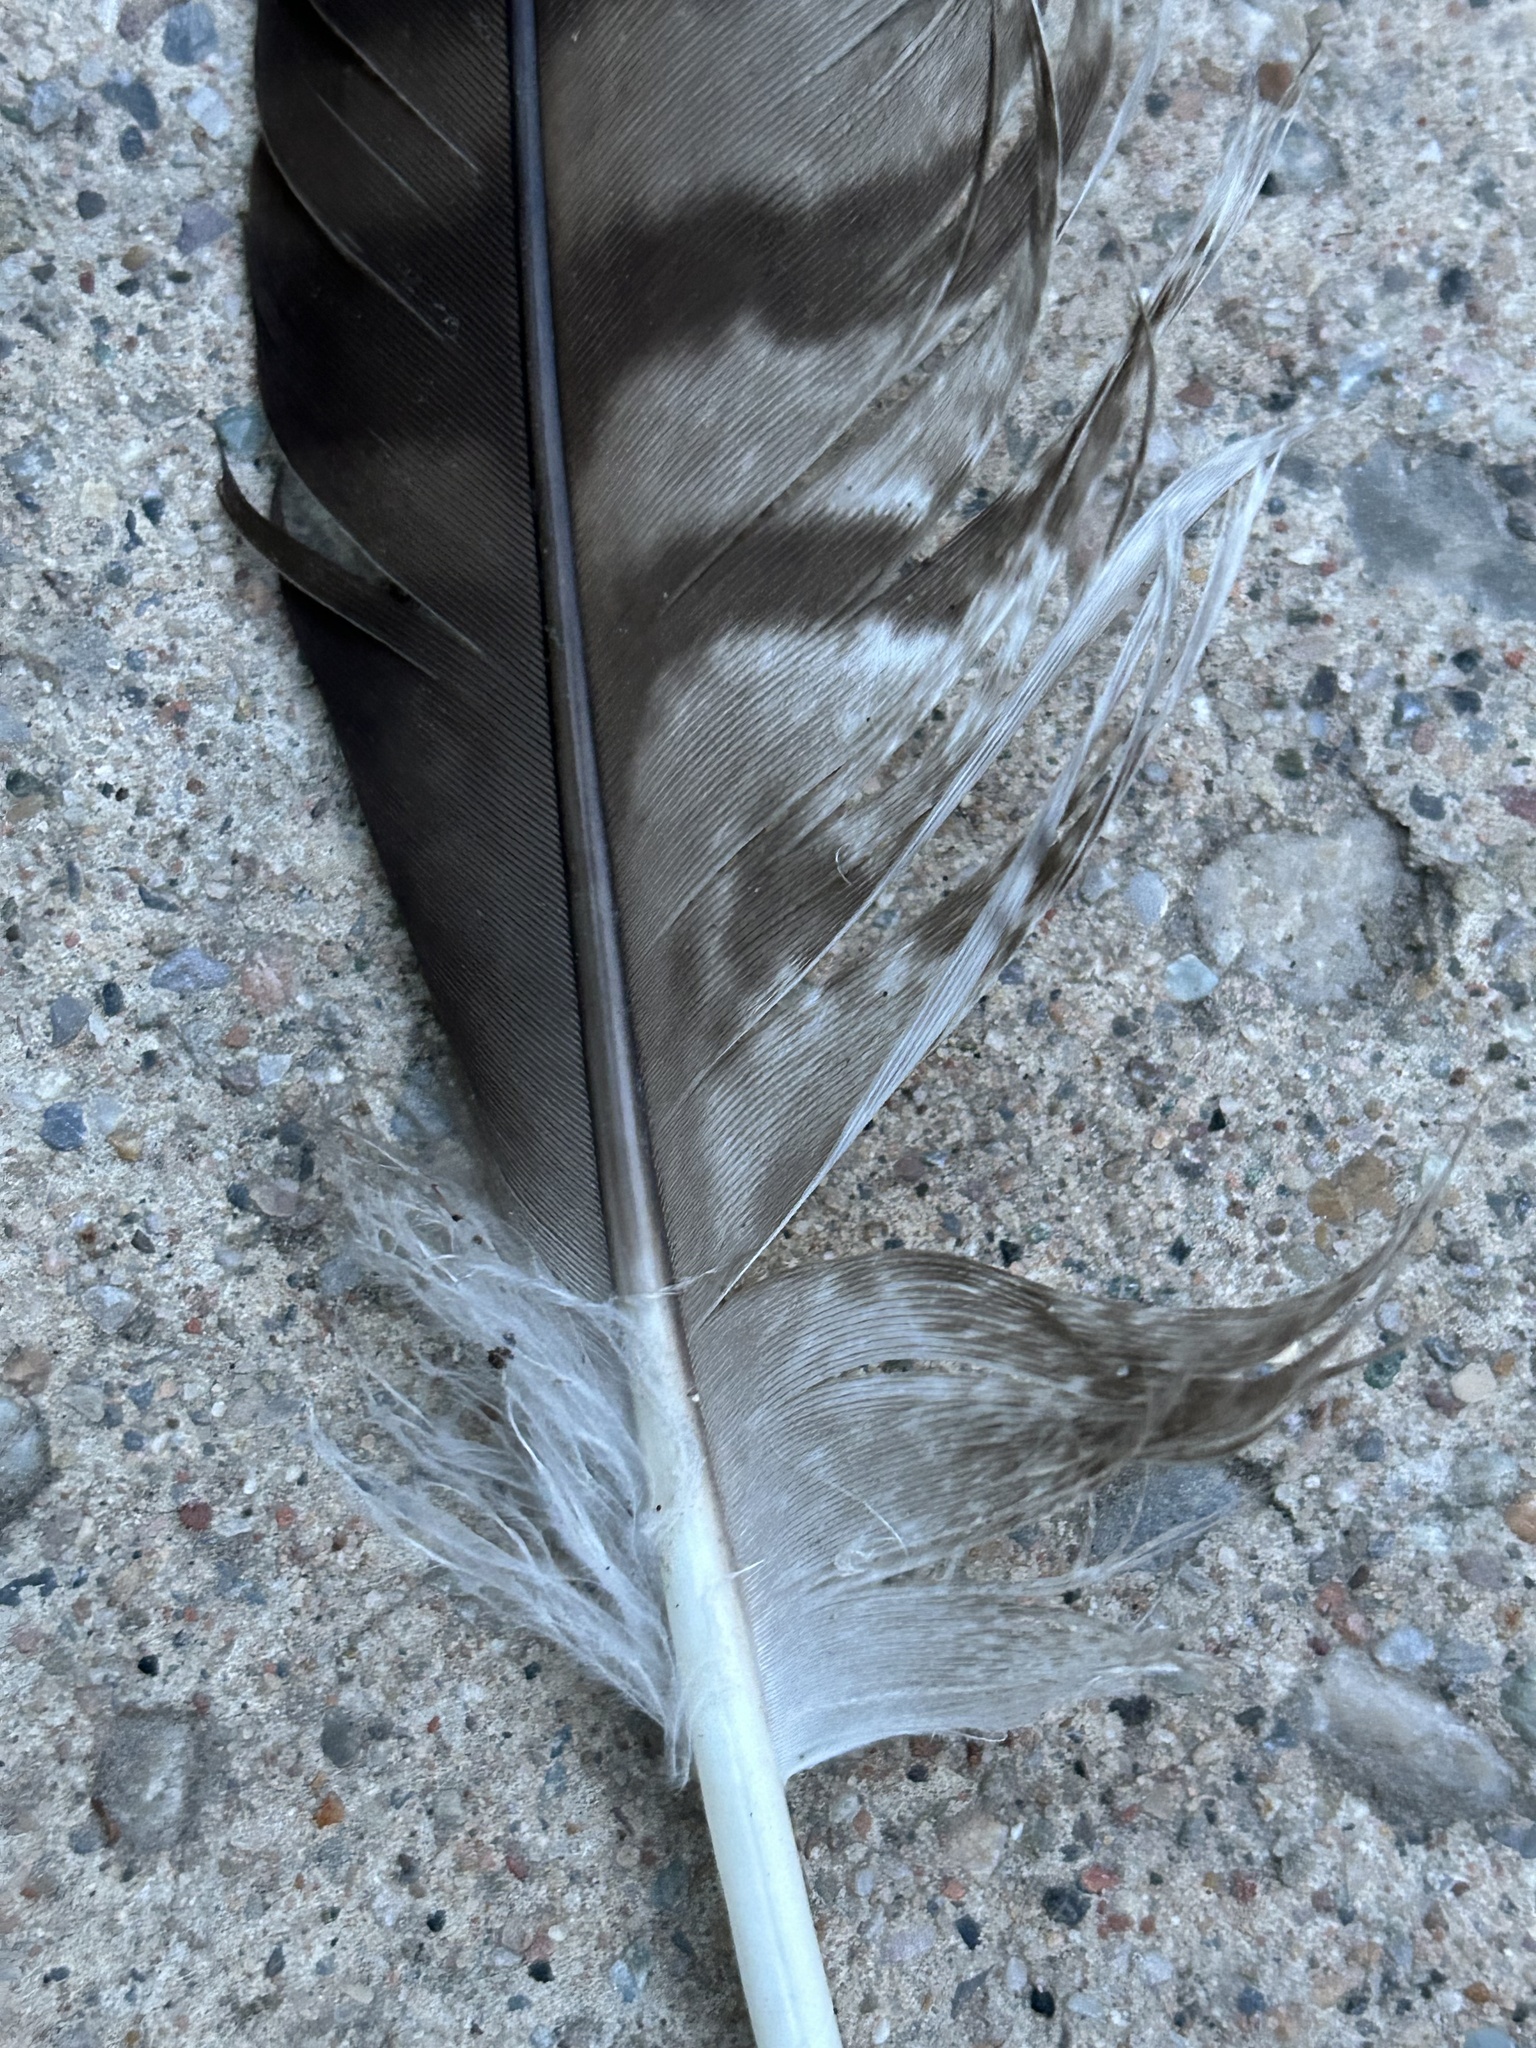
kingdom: Animalia
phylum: Chordata
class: Aves
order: Accipitriformes
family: Accipitridae
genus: Buteo
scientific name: Buteo jamaicensis
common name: Red-tailed hawk
